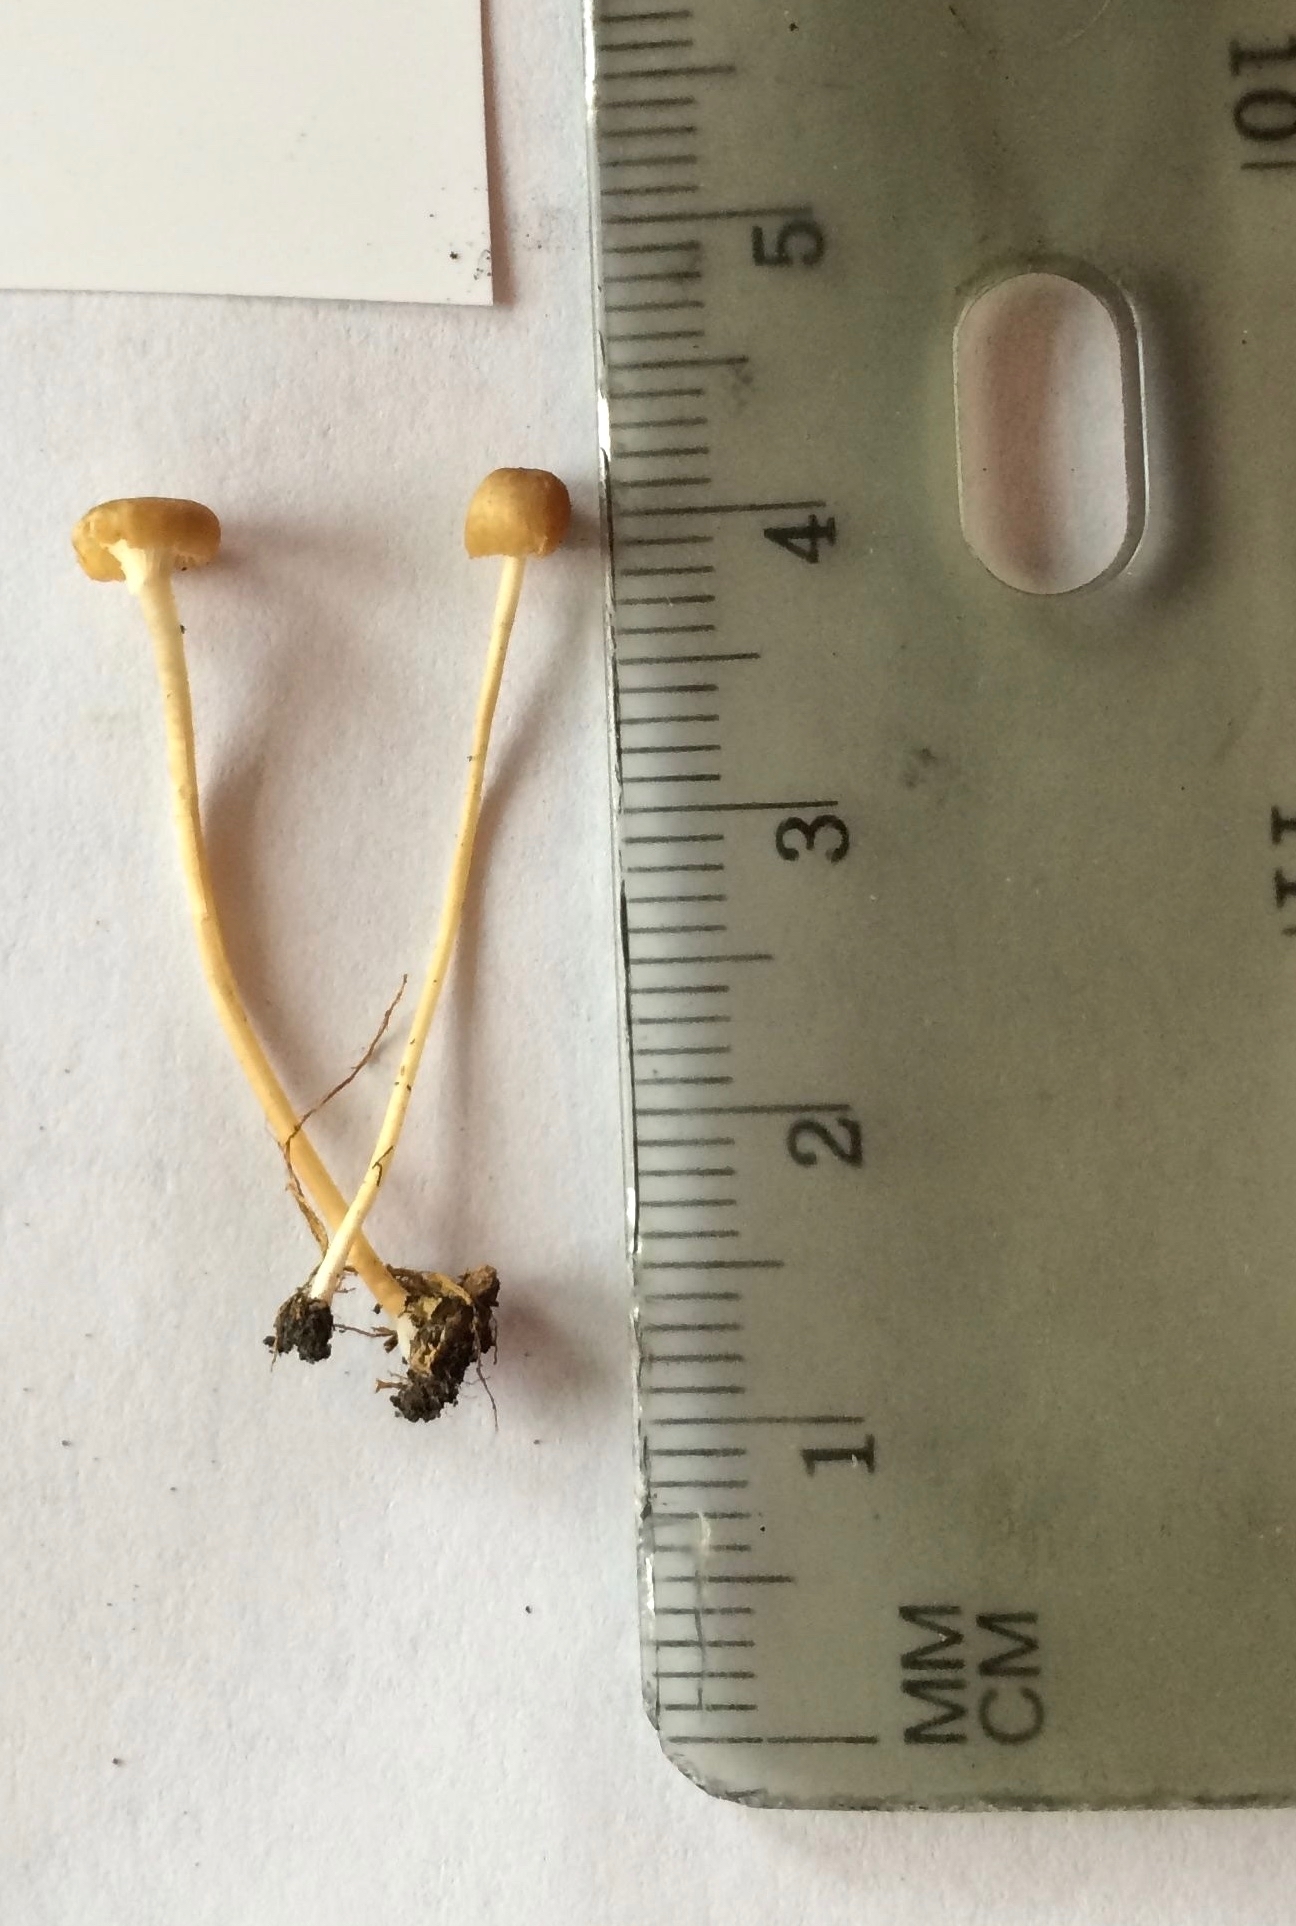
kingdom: Fungi
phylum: Basidiomycota
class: Agaricomycetes
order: Hymenochaetales
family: Rickenellaceae
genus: Rickenella
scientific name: Rickenella fibula
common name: Orange mosscap
